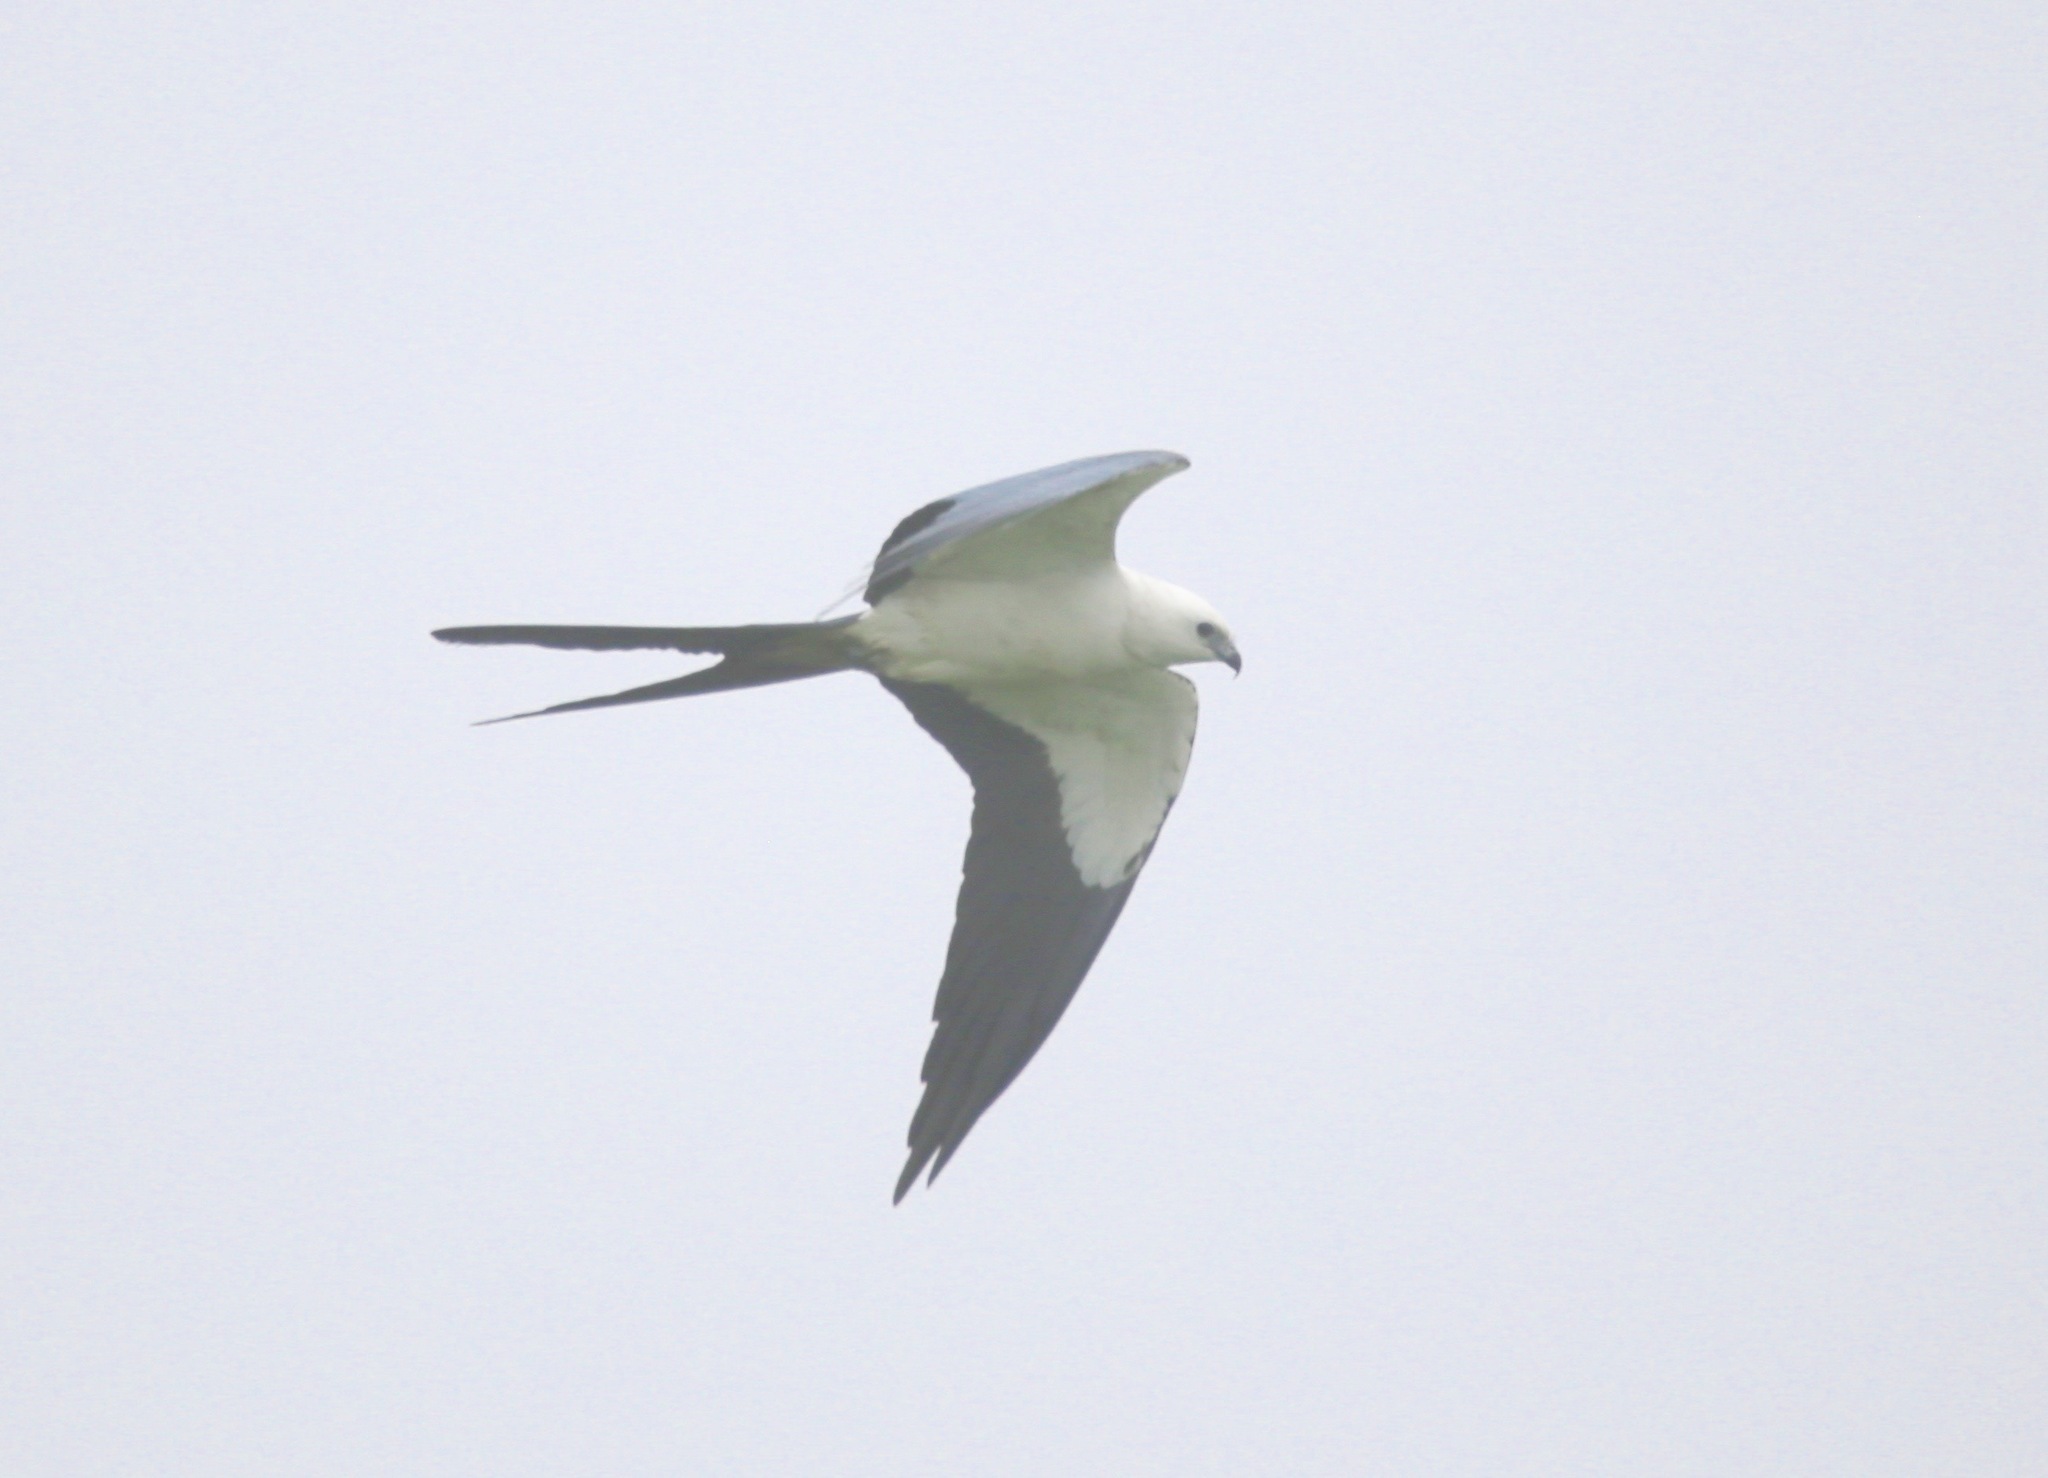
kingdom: Animalia
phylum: Chordata
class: Aves
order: Accipitriformes
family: Accipitridae
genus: Elanoides
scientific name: Elanoides forficatus
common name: Swallow-tailed kite
